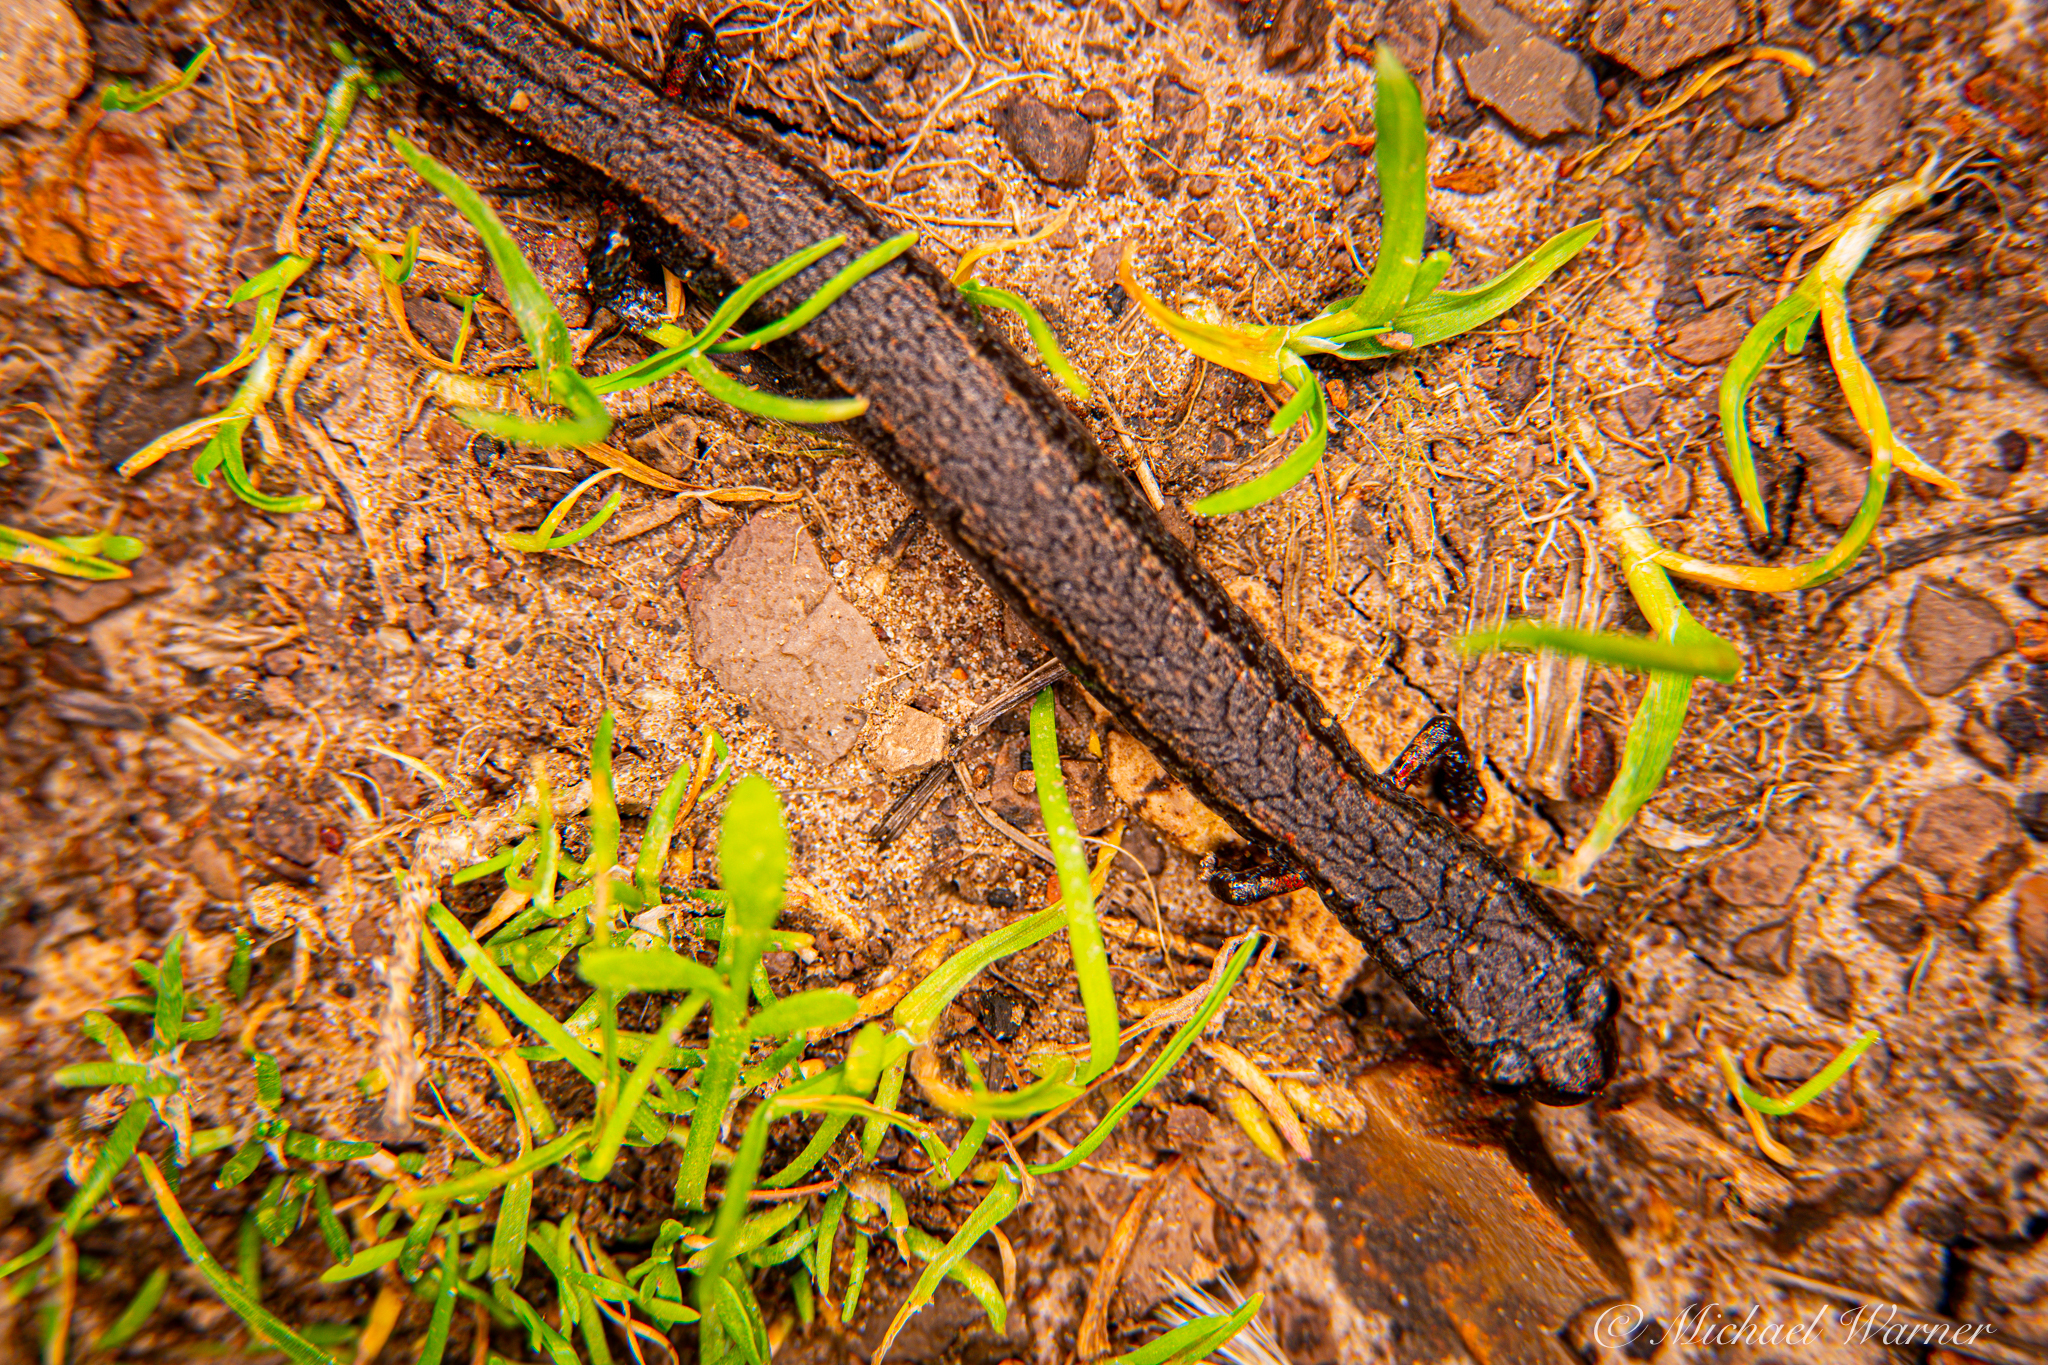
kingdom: Animalia
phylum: Chordata
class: Amphibia
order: Caudata
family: Plethodontidae
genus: Batrachoseps
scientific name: Batrachoseps attenuatus
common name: California slender salamander
